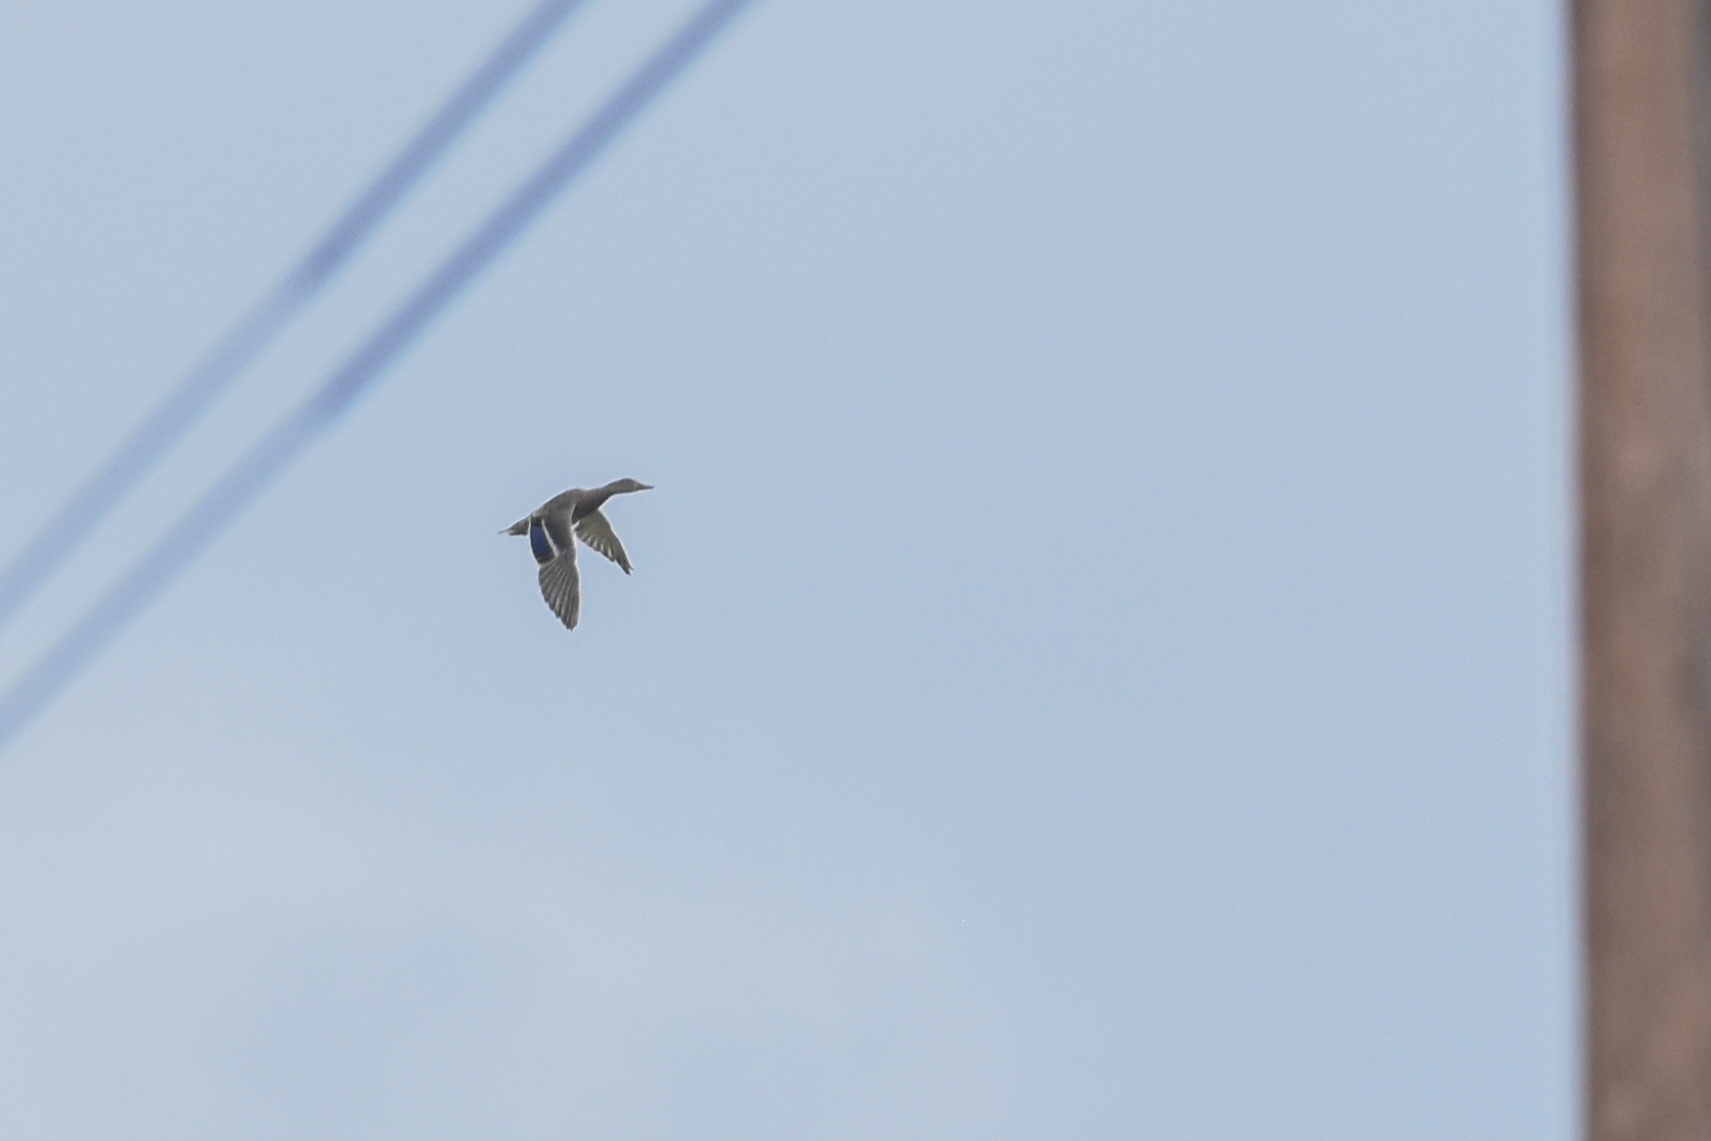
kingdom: Animalia
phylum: Chordata
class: Aves
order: Anseriformes
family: Anatidae
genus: Anas
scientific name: Anas platyrhynchos
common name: Mallard
